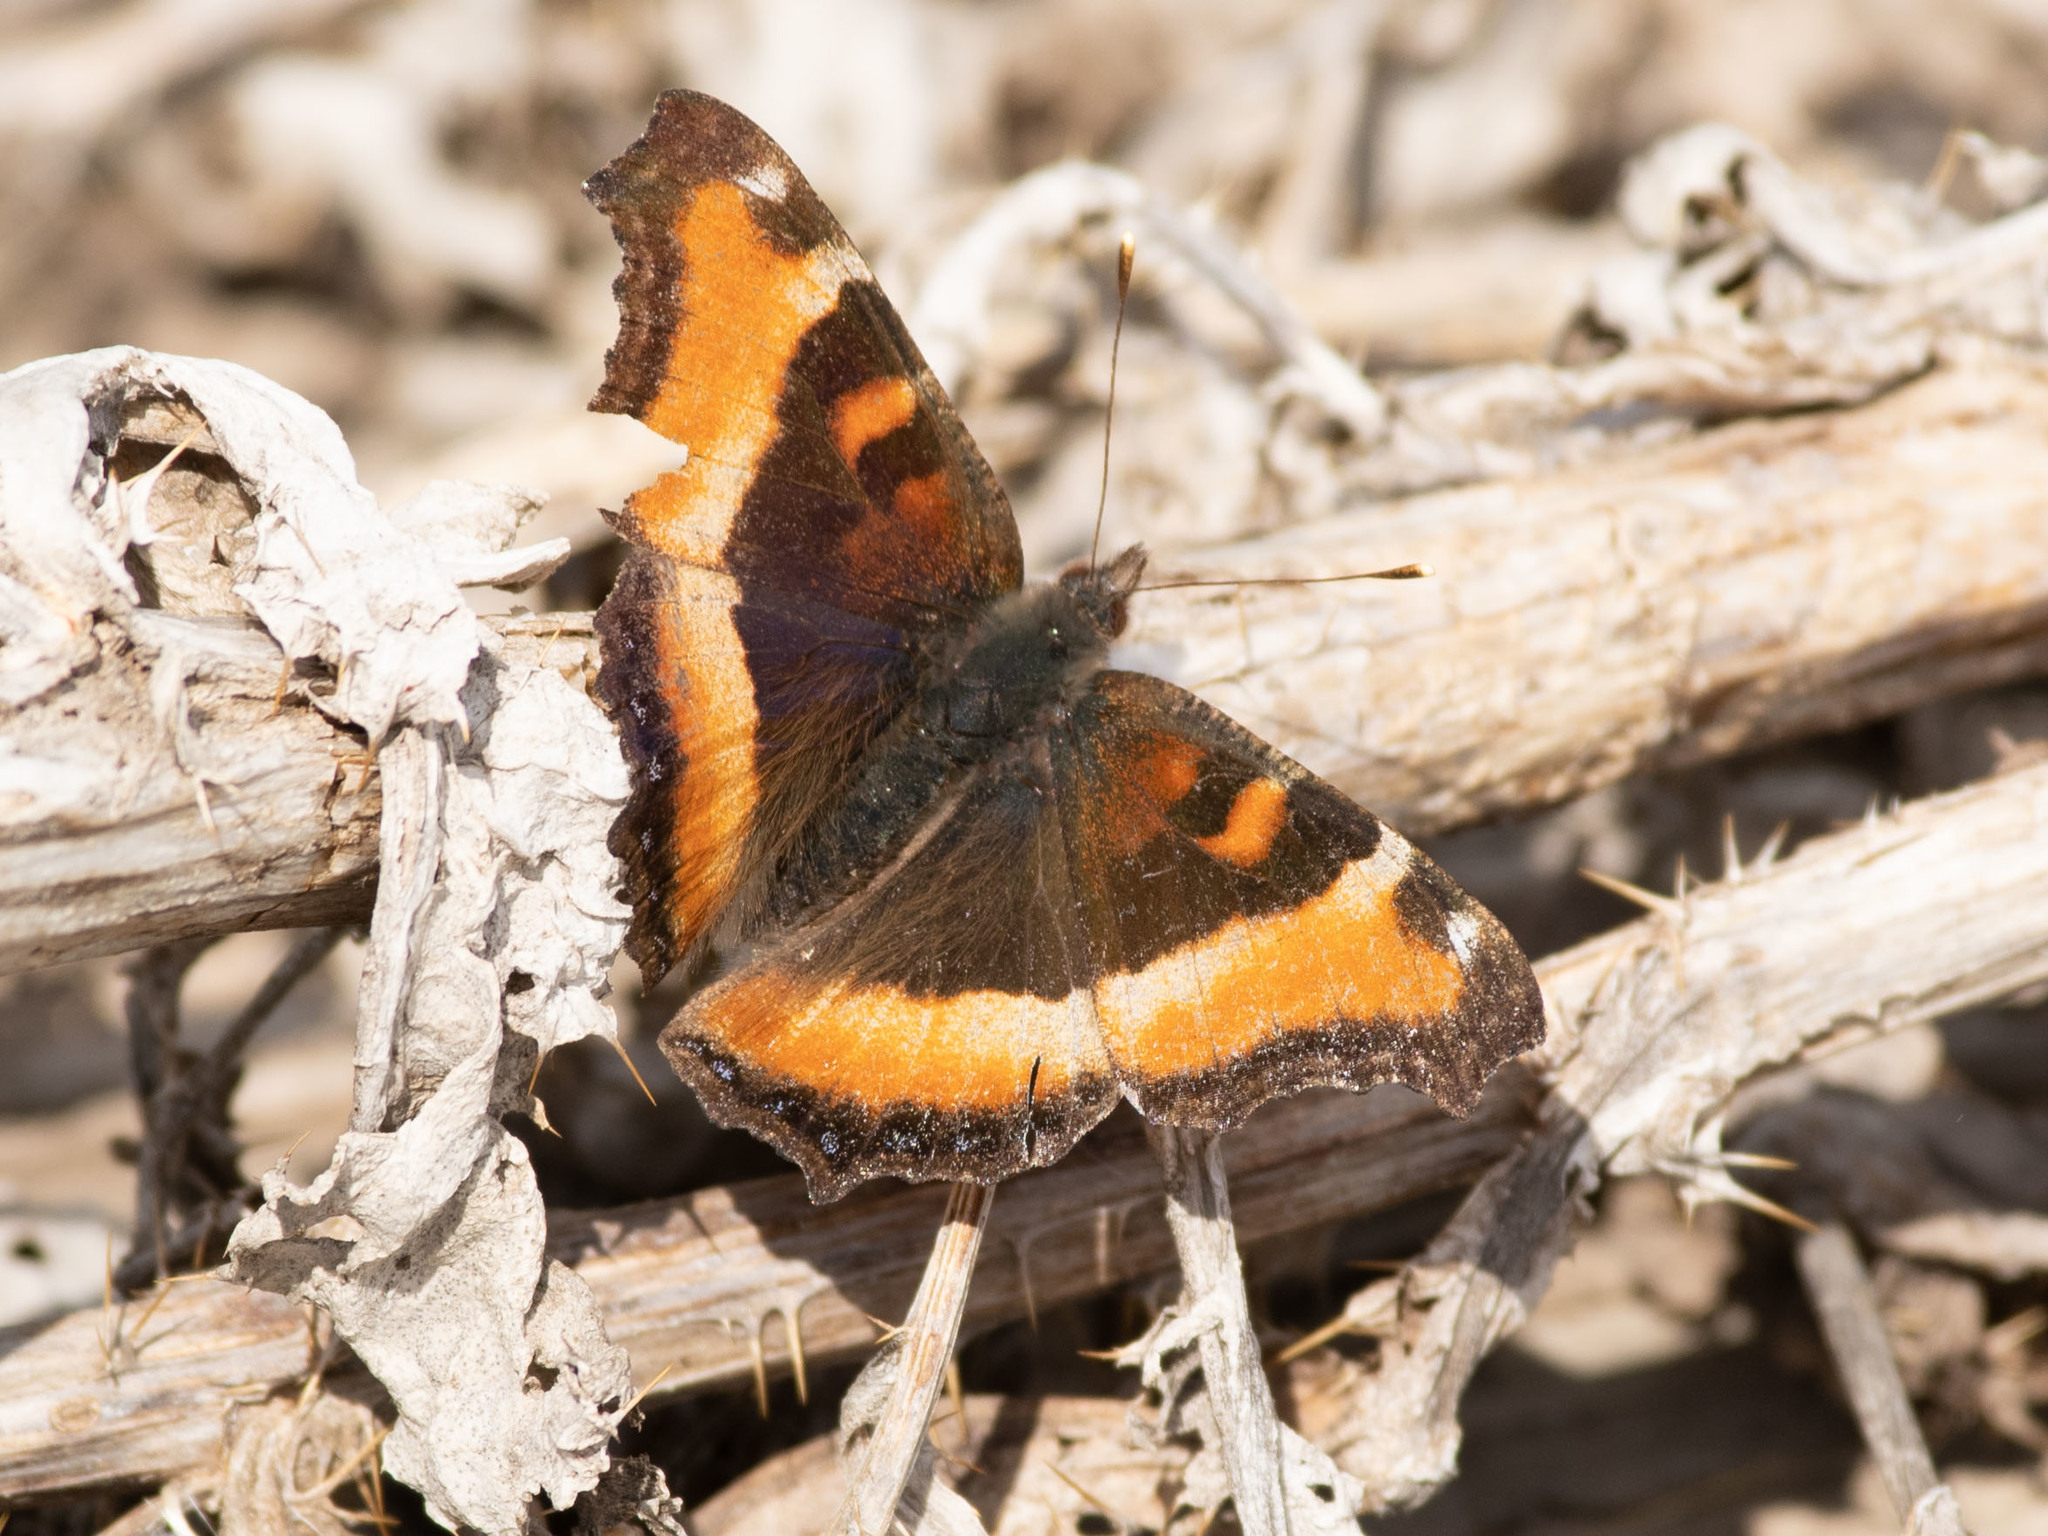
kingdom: Animalia
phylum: Arthropoda
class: Insecta
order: Lepidoptera
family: Nymphalidae
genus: Aglais
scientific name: Aglais milberti
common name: Milbert's tortoiseshell
